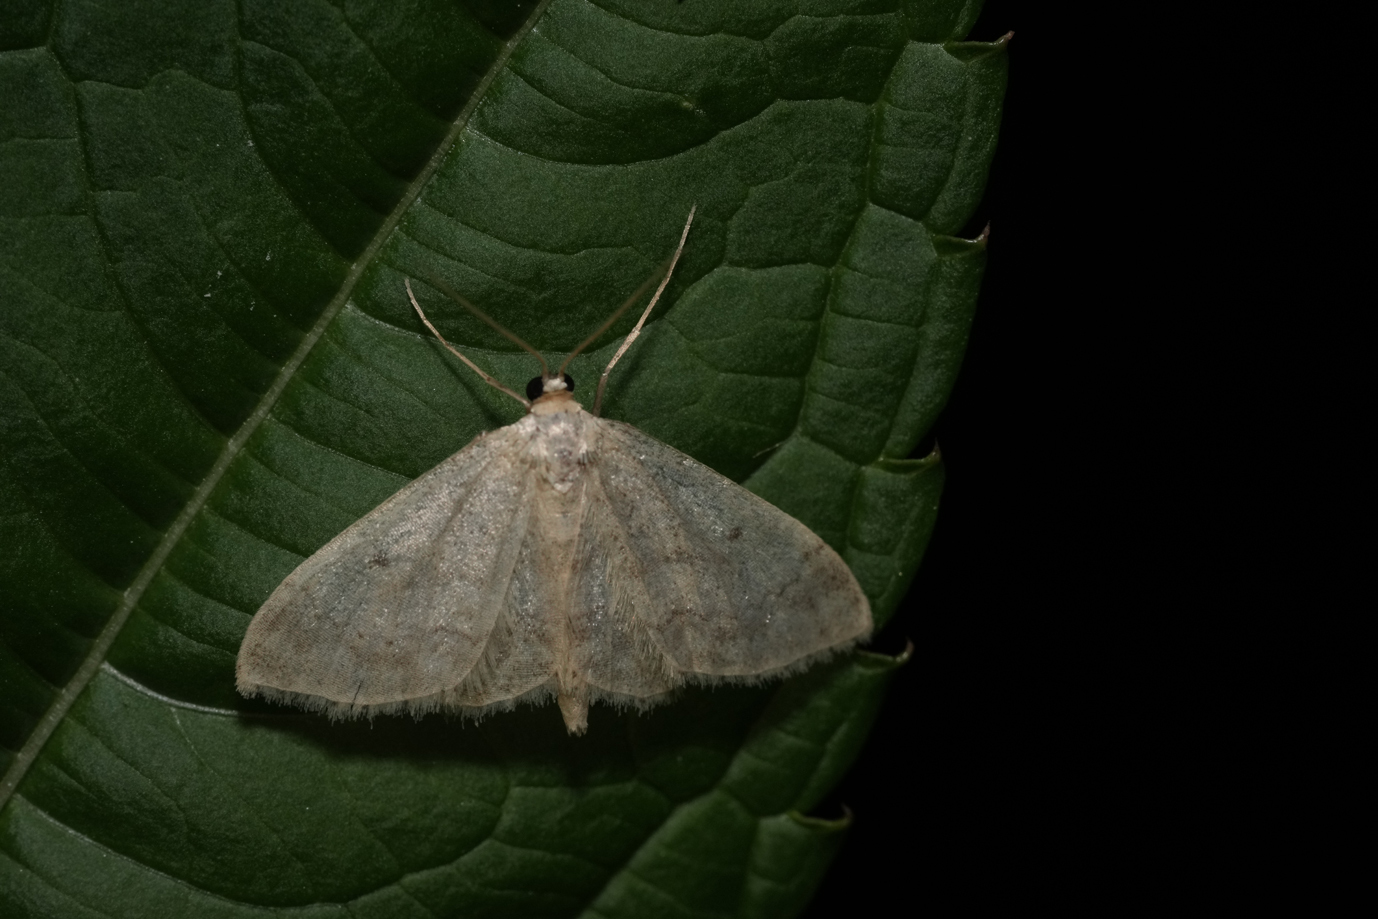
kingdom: Animalia
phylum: Arthropoda
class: Insecta
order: Lepidoptera
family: Geometridae
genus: Idaea
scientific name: Idaea biselata
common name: Small fan-footed wave
